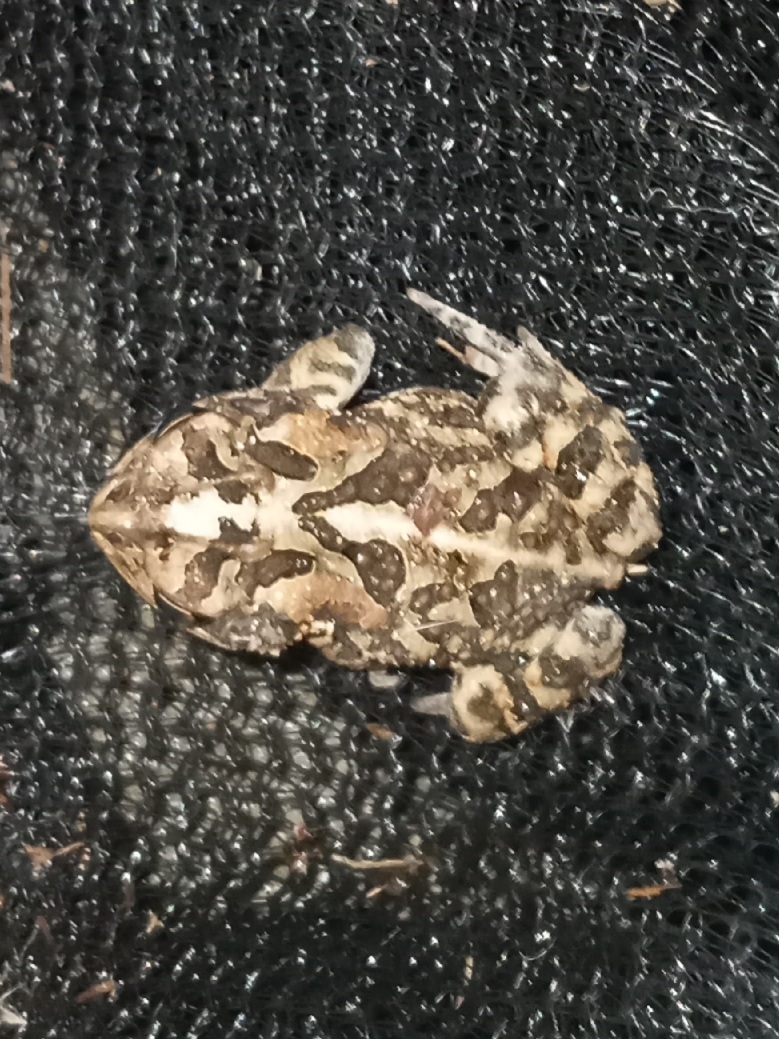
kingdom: Animalia
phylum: Chordata
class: Amphibia
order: Anura
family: Bufonidae
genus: Anaxyrus
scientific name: Anaxyrus terrestris
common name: Southern toad
